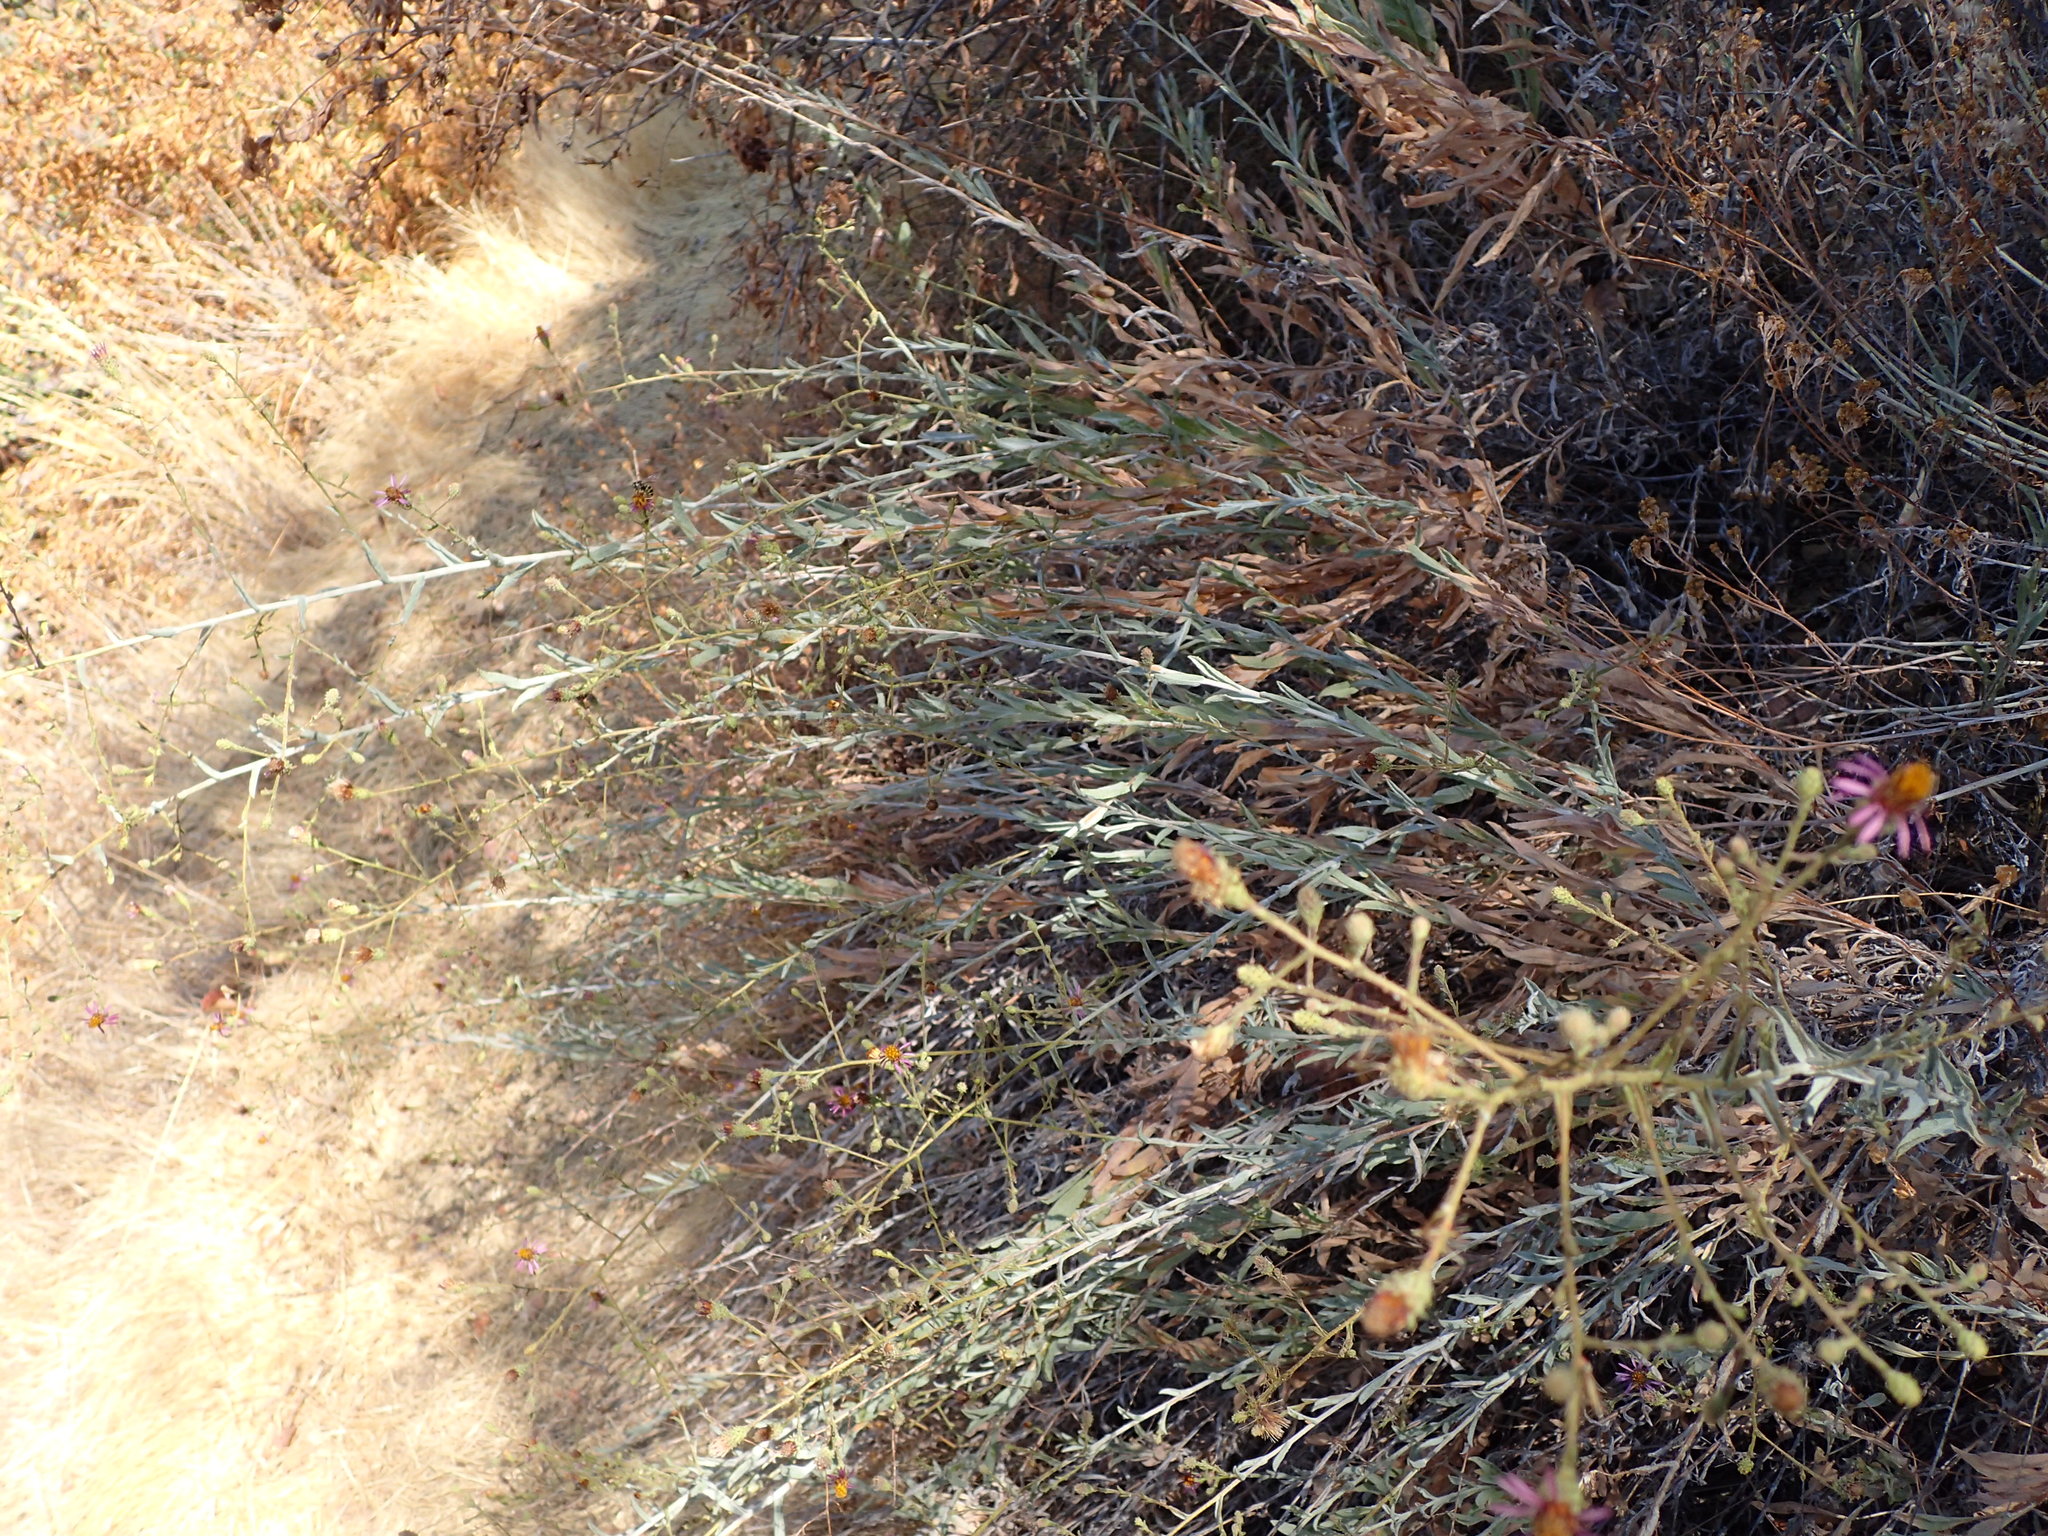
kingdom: Plantae
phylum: Tracheophyta
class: Magnoliopsida
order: Asterales
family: Asteraceae
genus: Corethrogyne
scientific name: Corethrogyne filaginifolia
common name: Sand-aster
